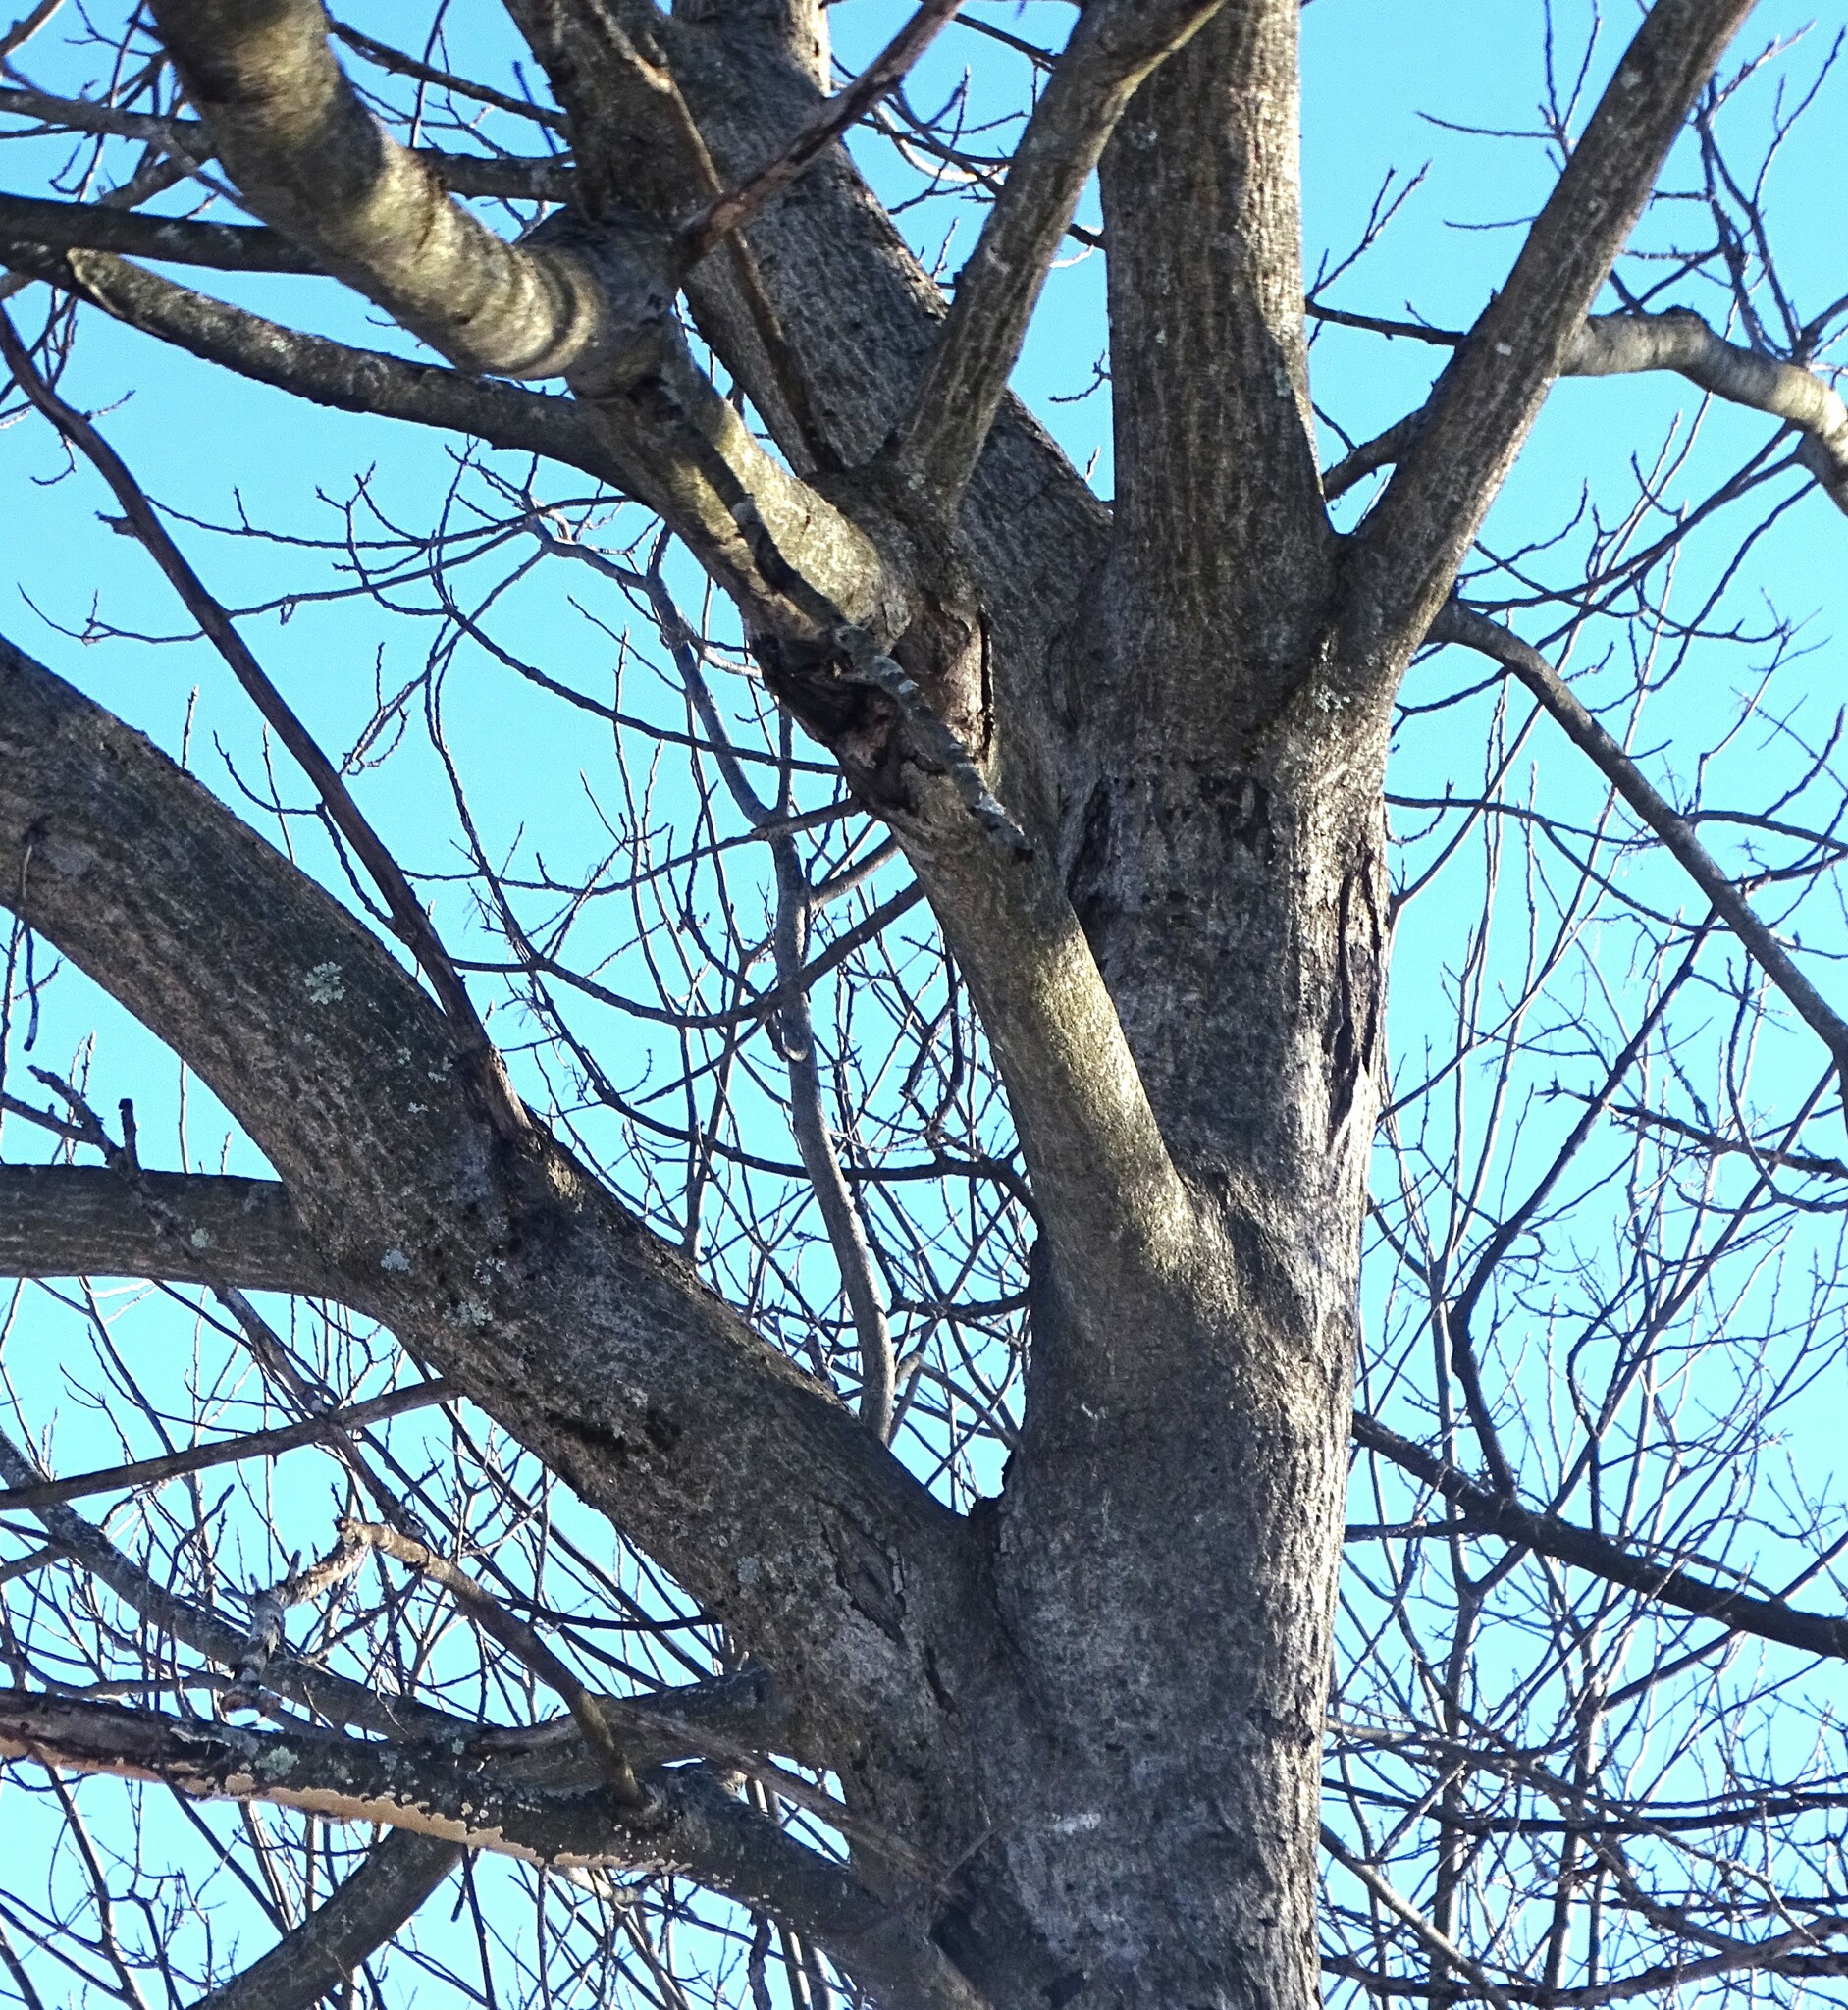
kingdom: Fungi
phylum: Ascomycota
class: Sordariomycetes
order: Diaporthales
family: Gnomoniaceae
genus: Ophiognomonia
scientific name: Ophiognomonia clavigignenti-juglandacearum
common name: Butternut canker fungus
